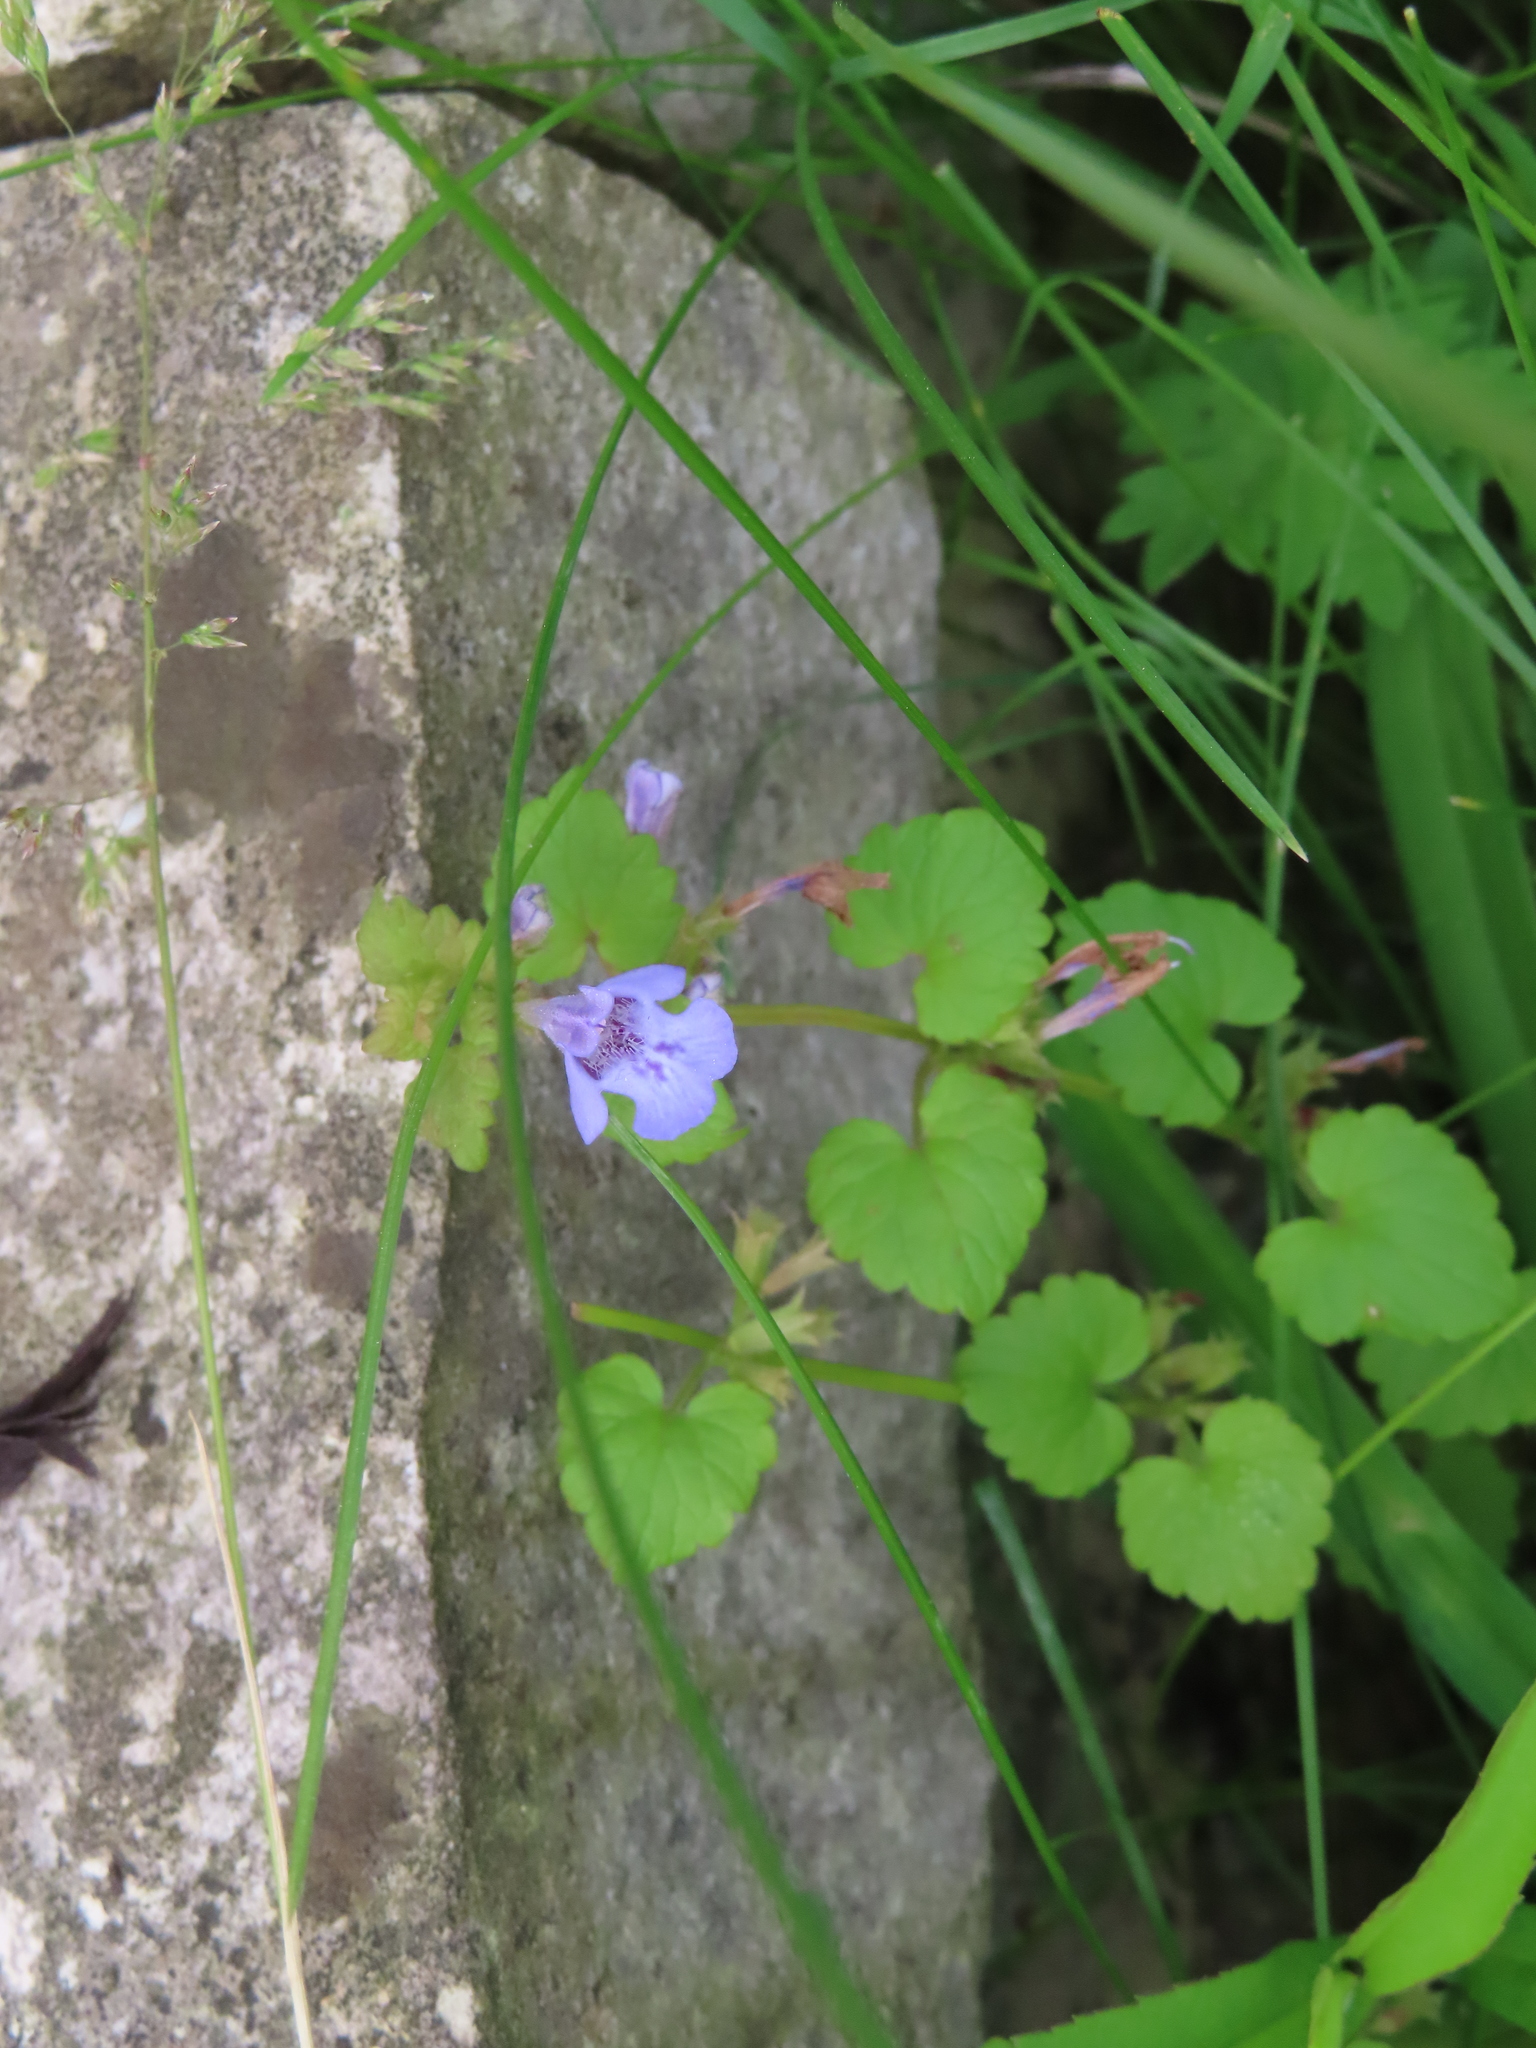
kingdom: Plantae
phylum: Tracheophyta
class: Magnoliopsida
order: Lamiales
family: Lamiaceae
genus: Glechoma
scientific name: Glechoma hederacea
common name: Ground ivy
